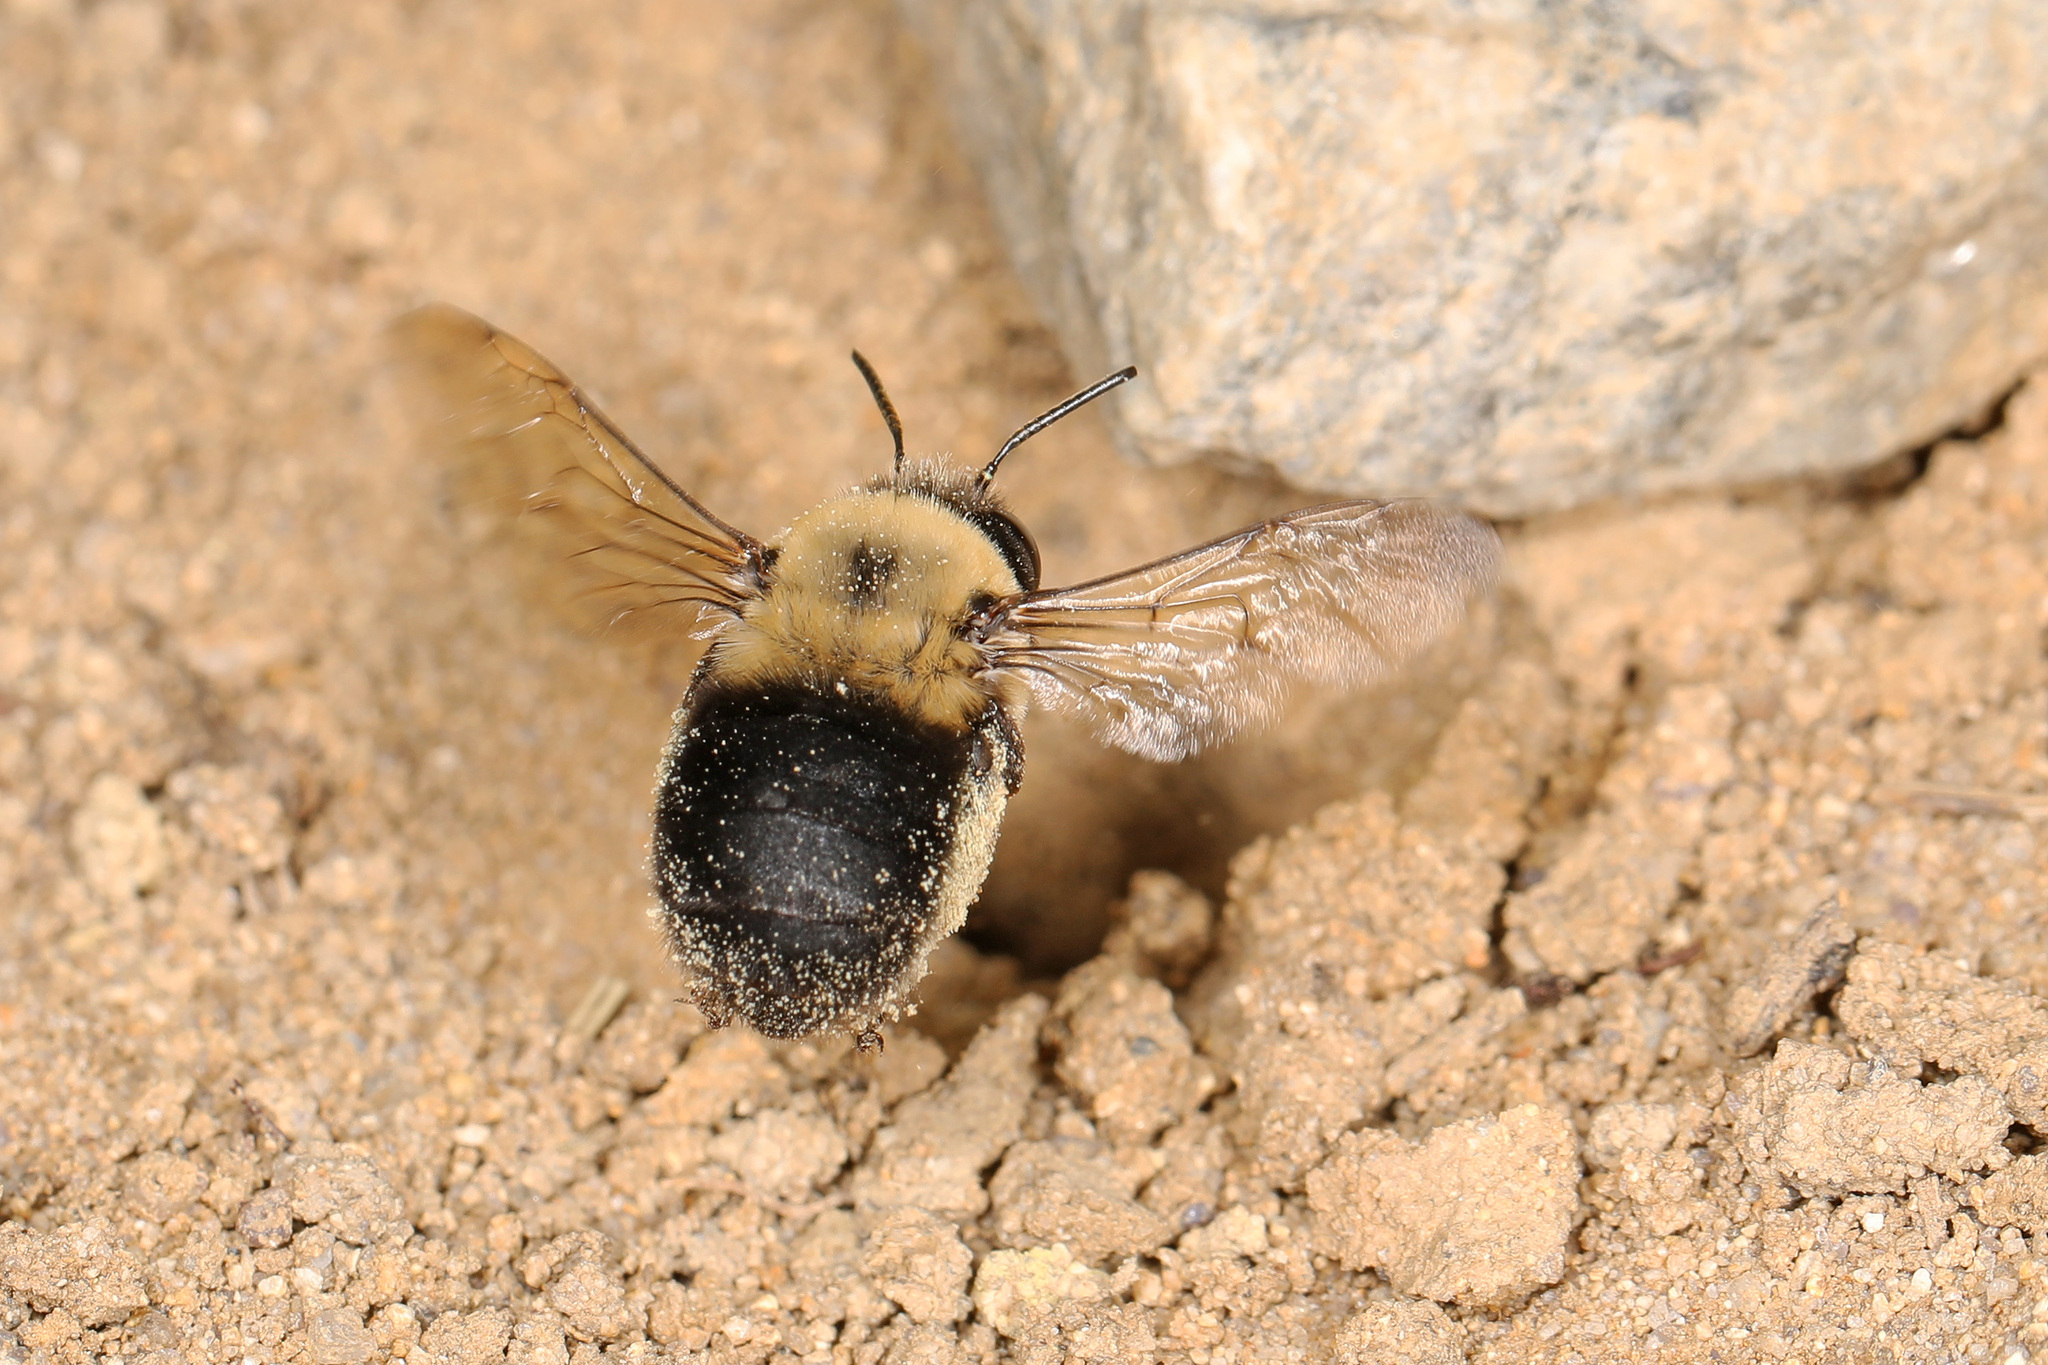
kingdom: Animalia
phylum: Arthropoda
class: Insecta
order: Hymenoptera
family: Apidae
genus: Anthophora
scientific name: Anthophora abrupta
